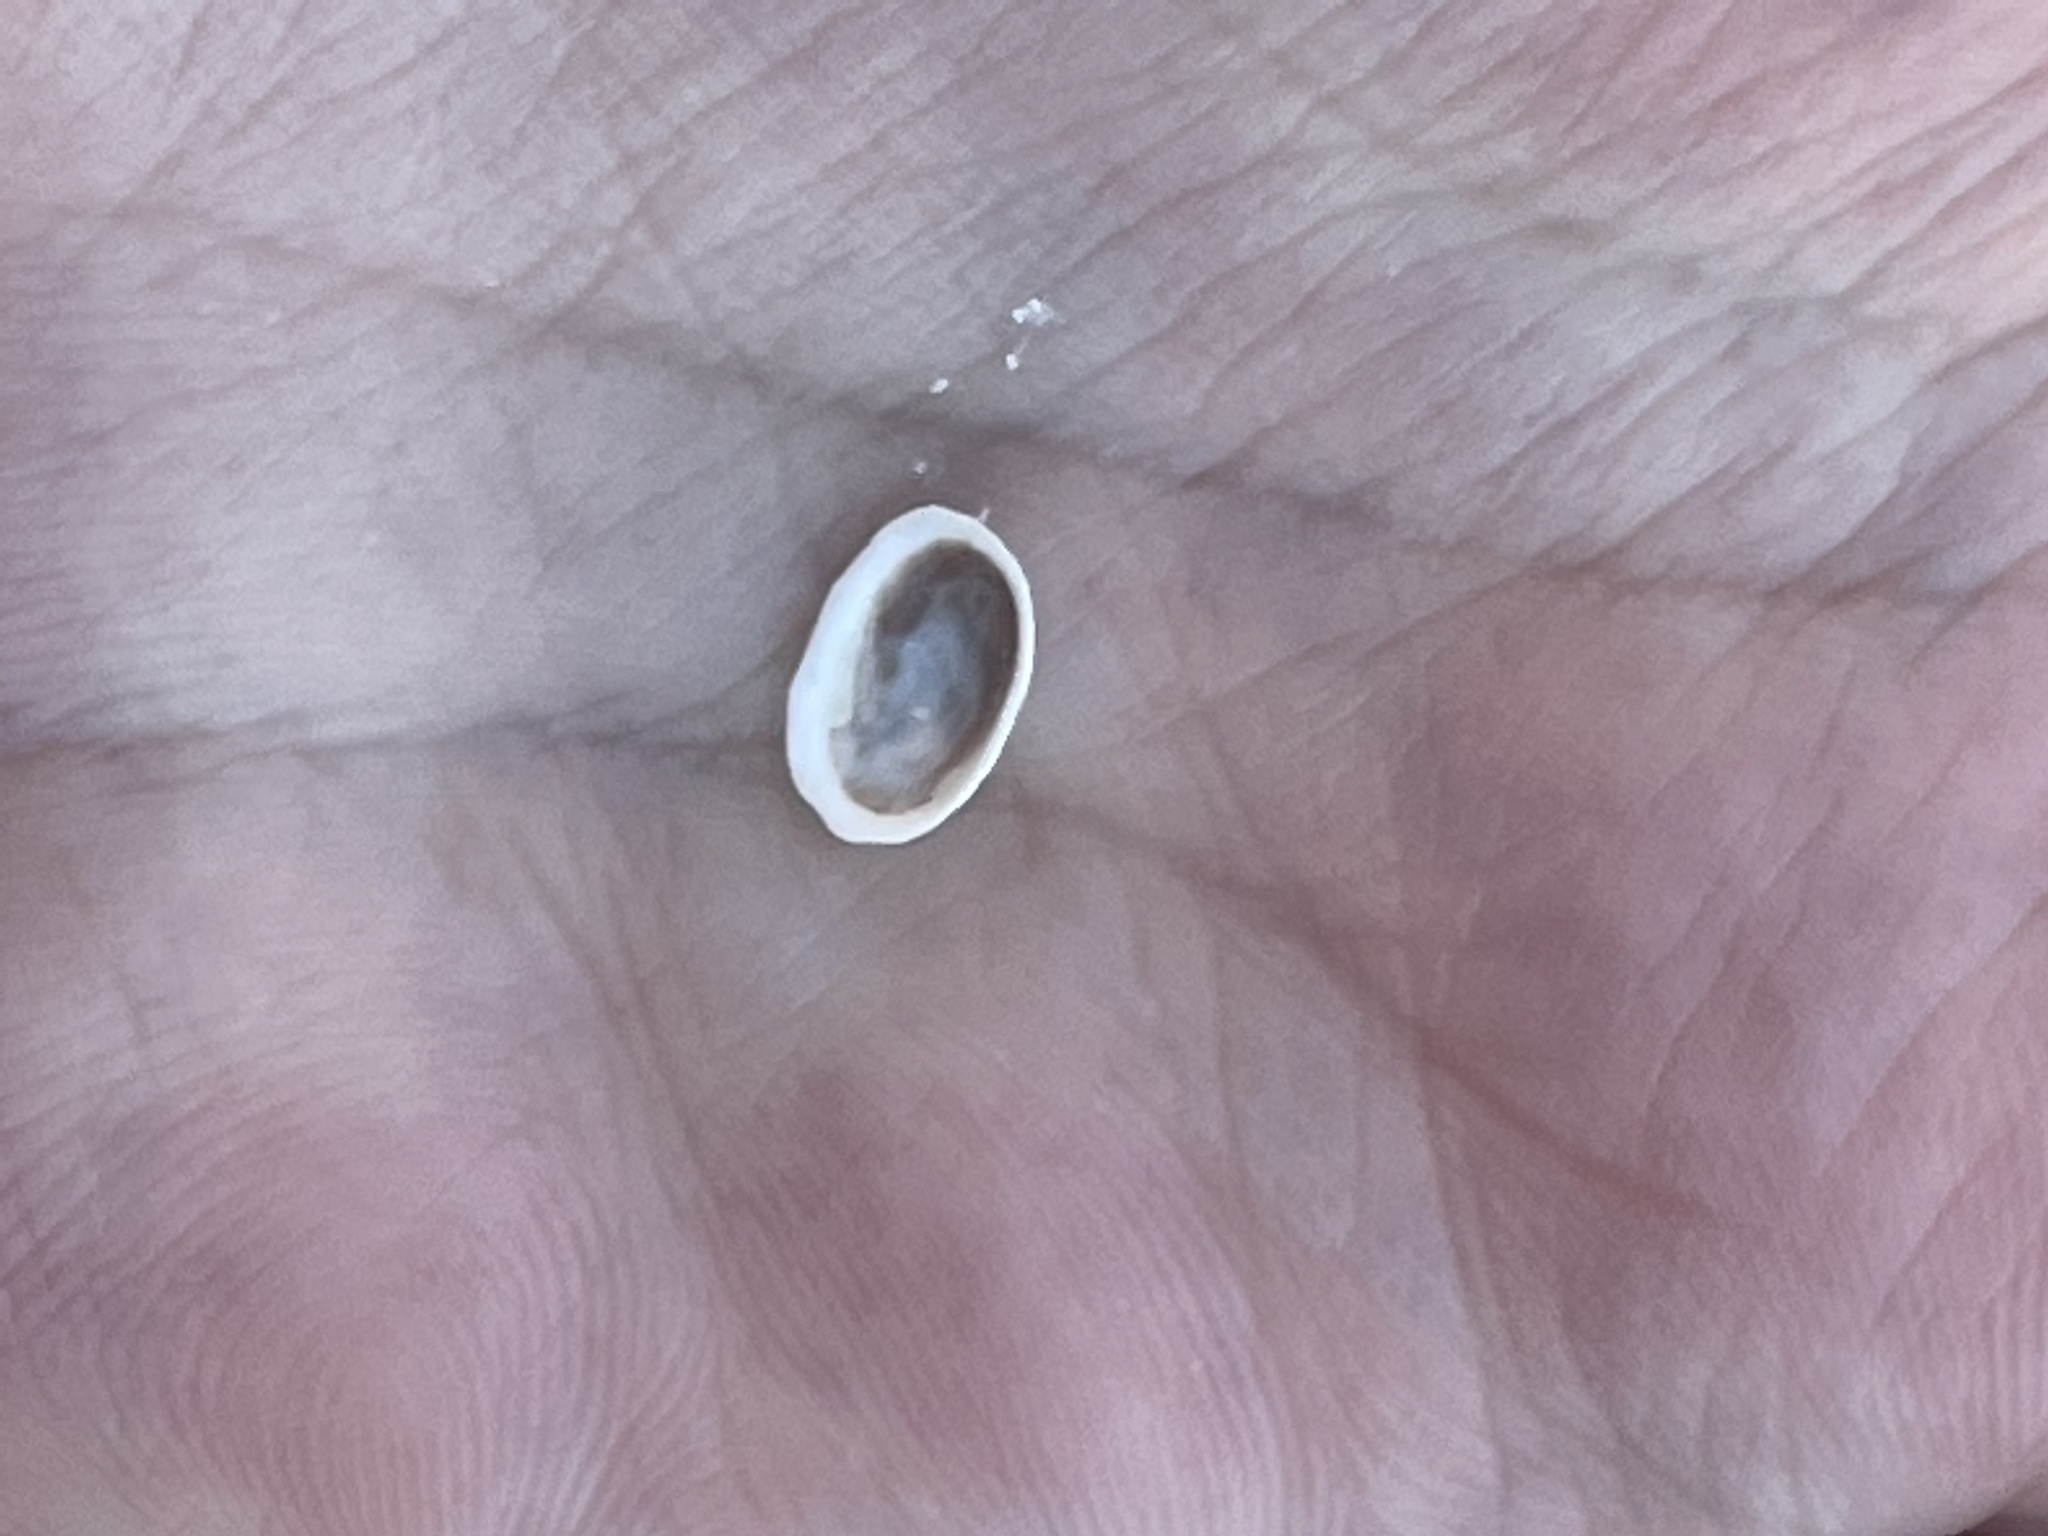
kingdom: Animalia
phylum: Mollusca
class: Gastropoda
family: Lottiidae
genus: Testudinalia
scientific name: Testudinalia testudinalis
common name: Common tortoiseshell limpet
